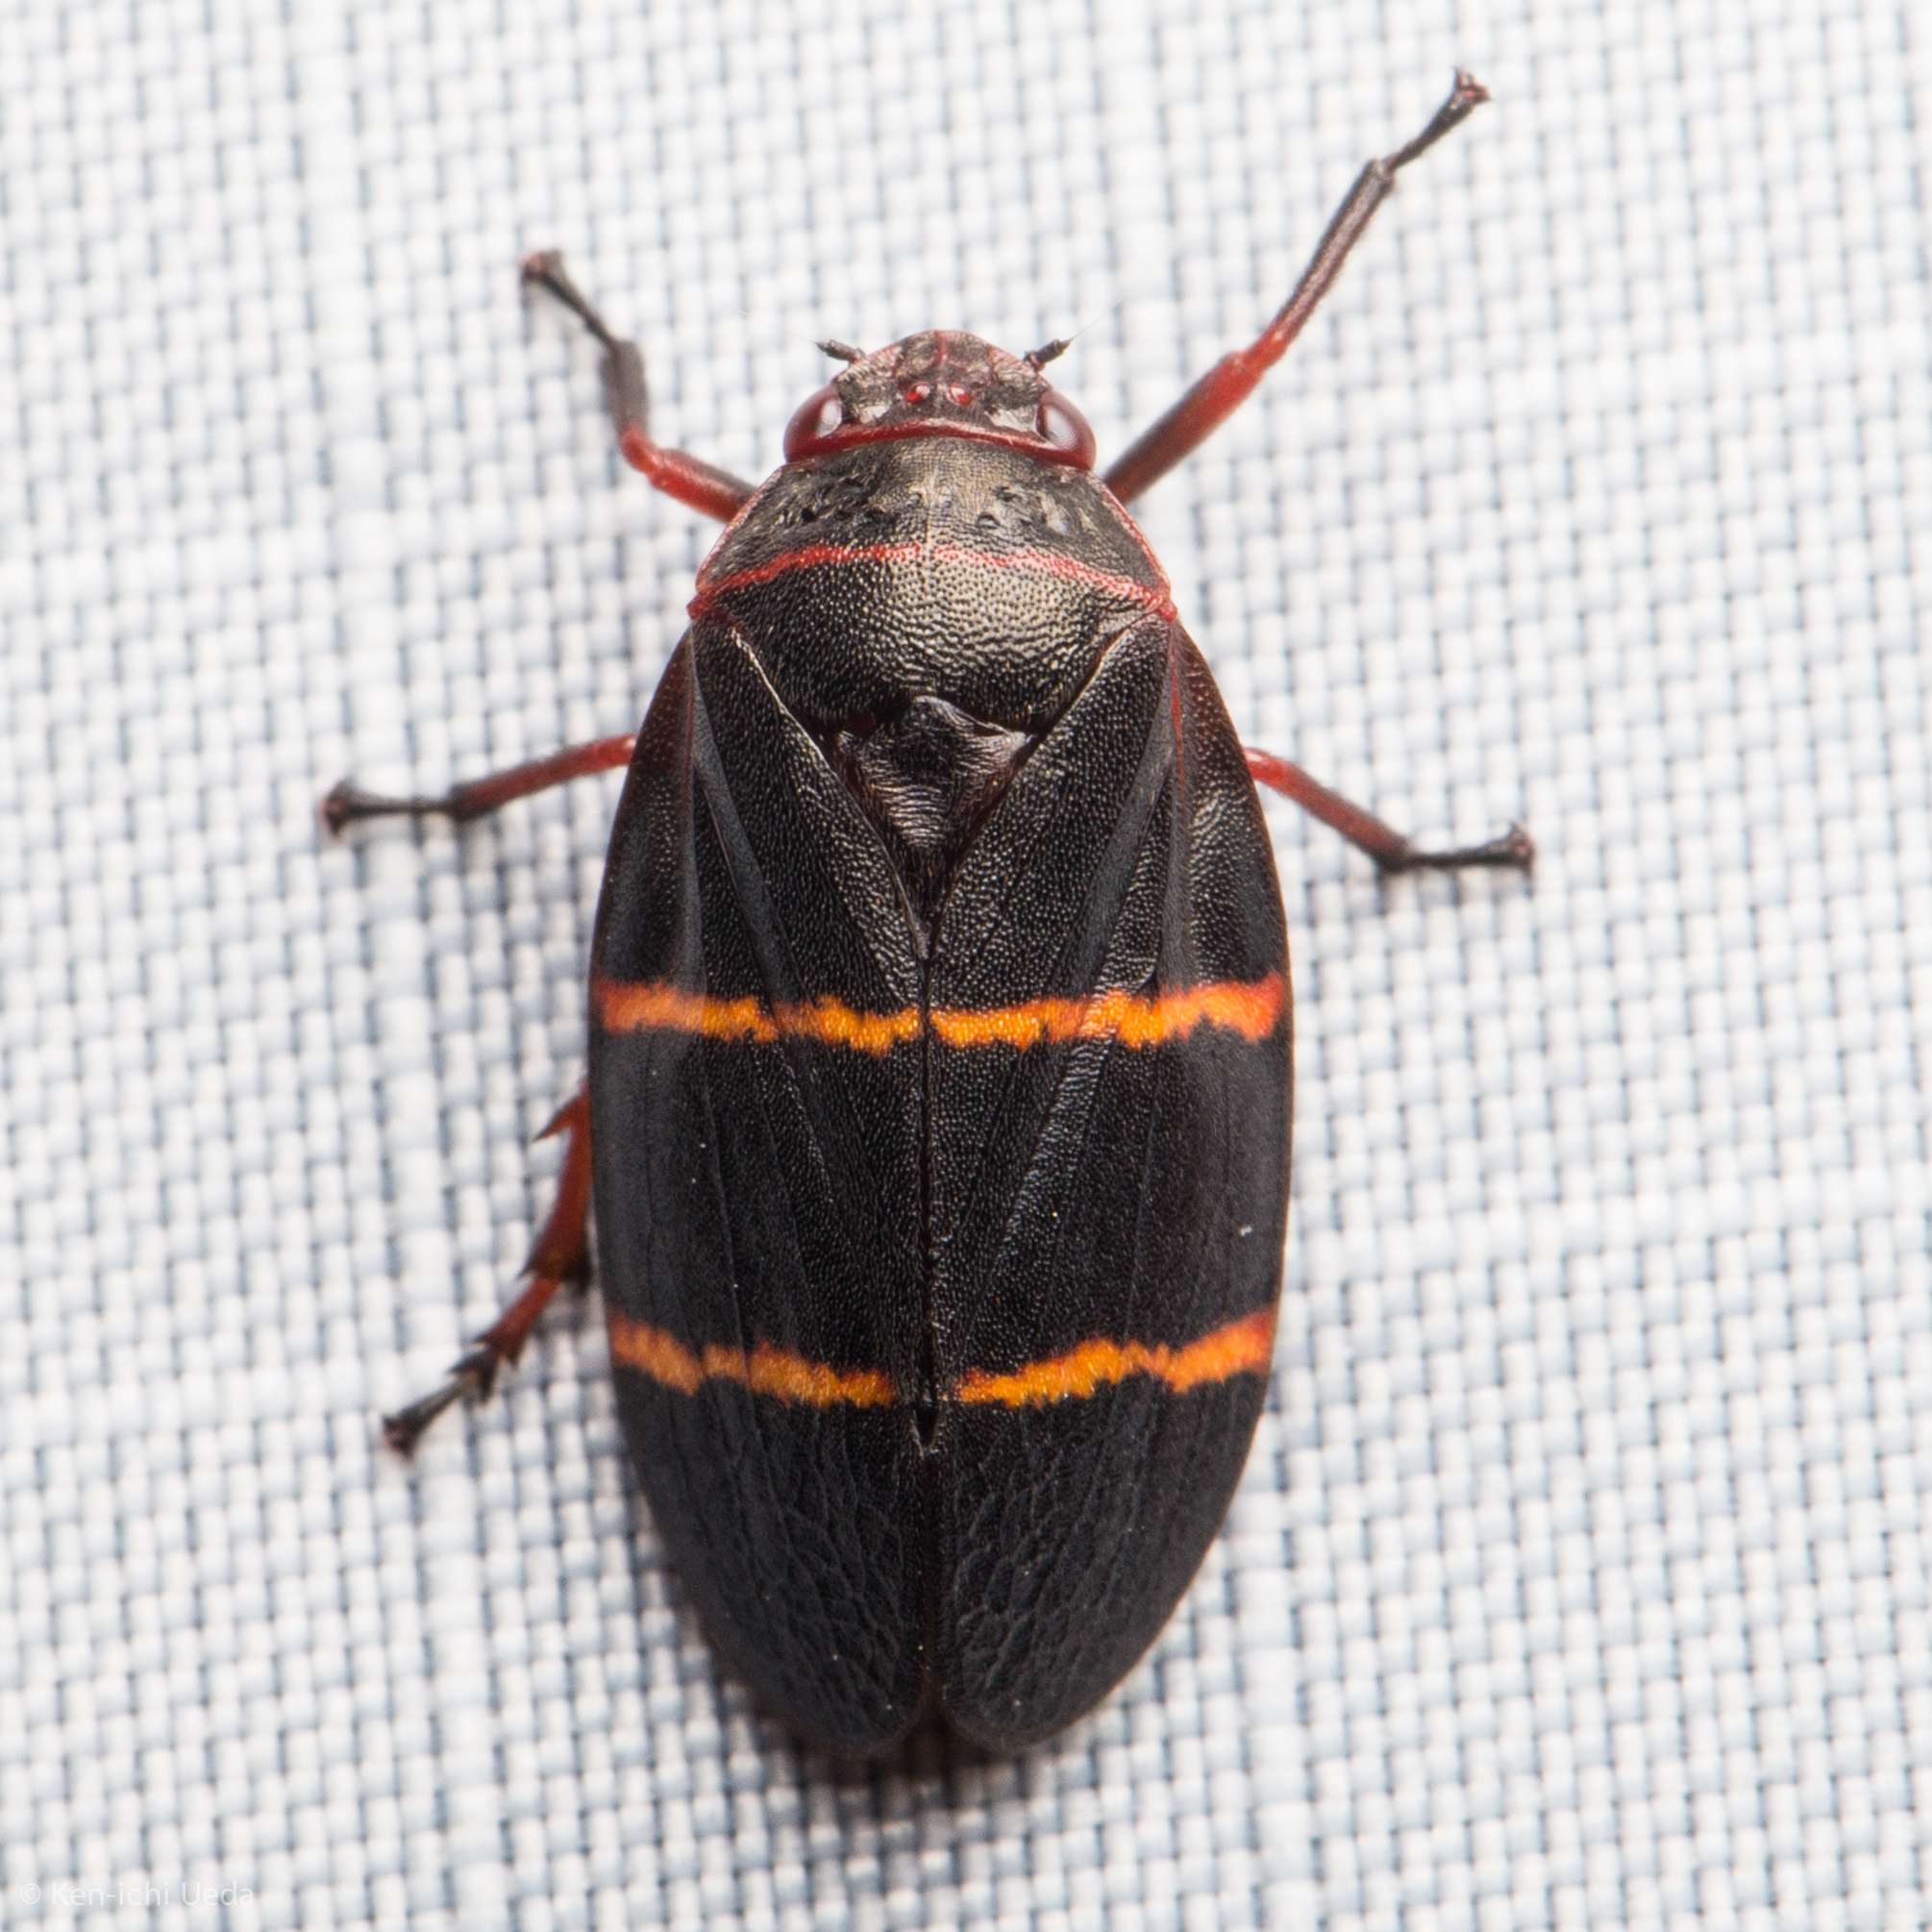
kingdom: Animalia
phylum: Arthropoda
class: Insecta
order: Hemiptera
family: Cercopidae
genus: Prosapia
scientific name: Prosapia bicincta
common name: Twolined spittlebug
